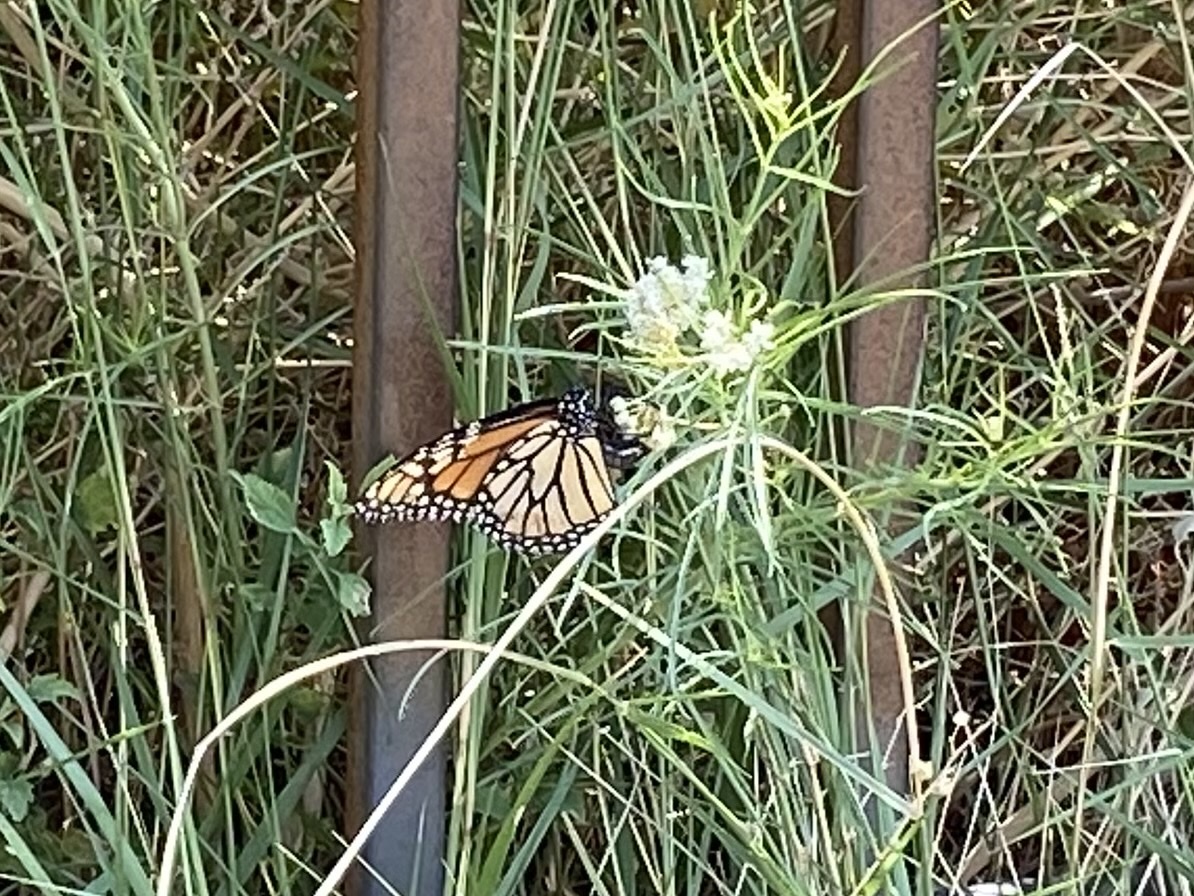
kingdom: Animalia
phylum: Arthropoda
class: Insecta
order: Lepidoptera
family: Nymphalidae
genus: Danaus
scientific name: Danaus plexippus
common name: Monarch
